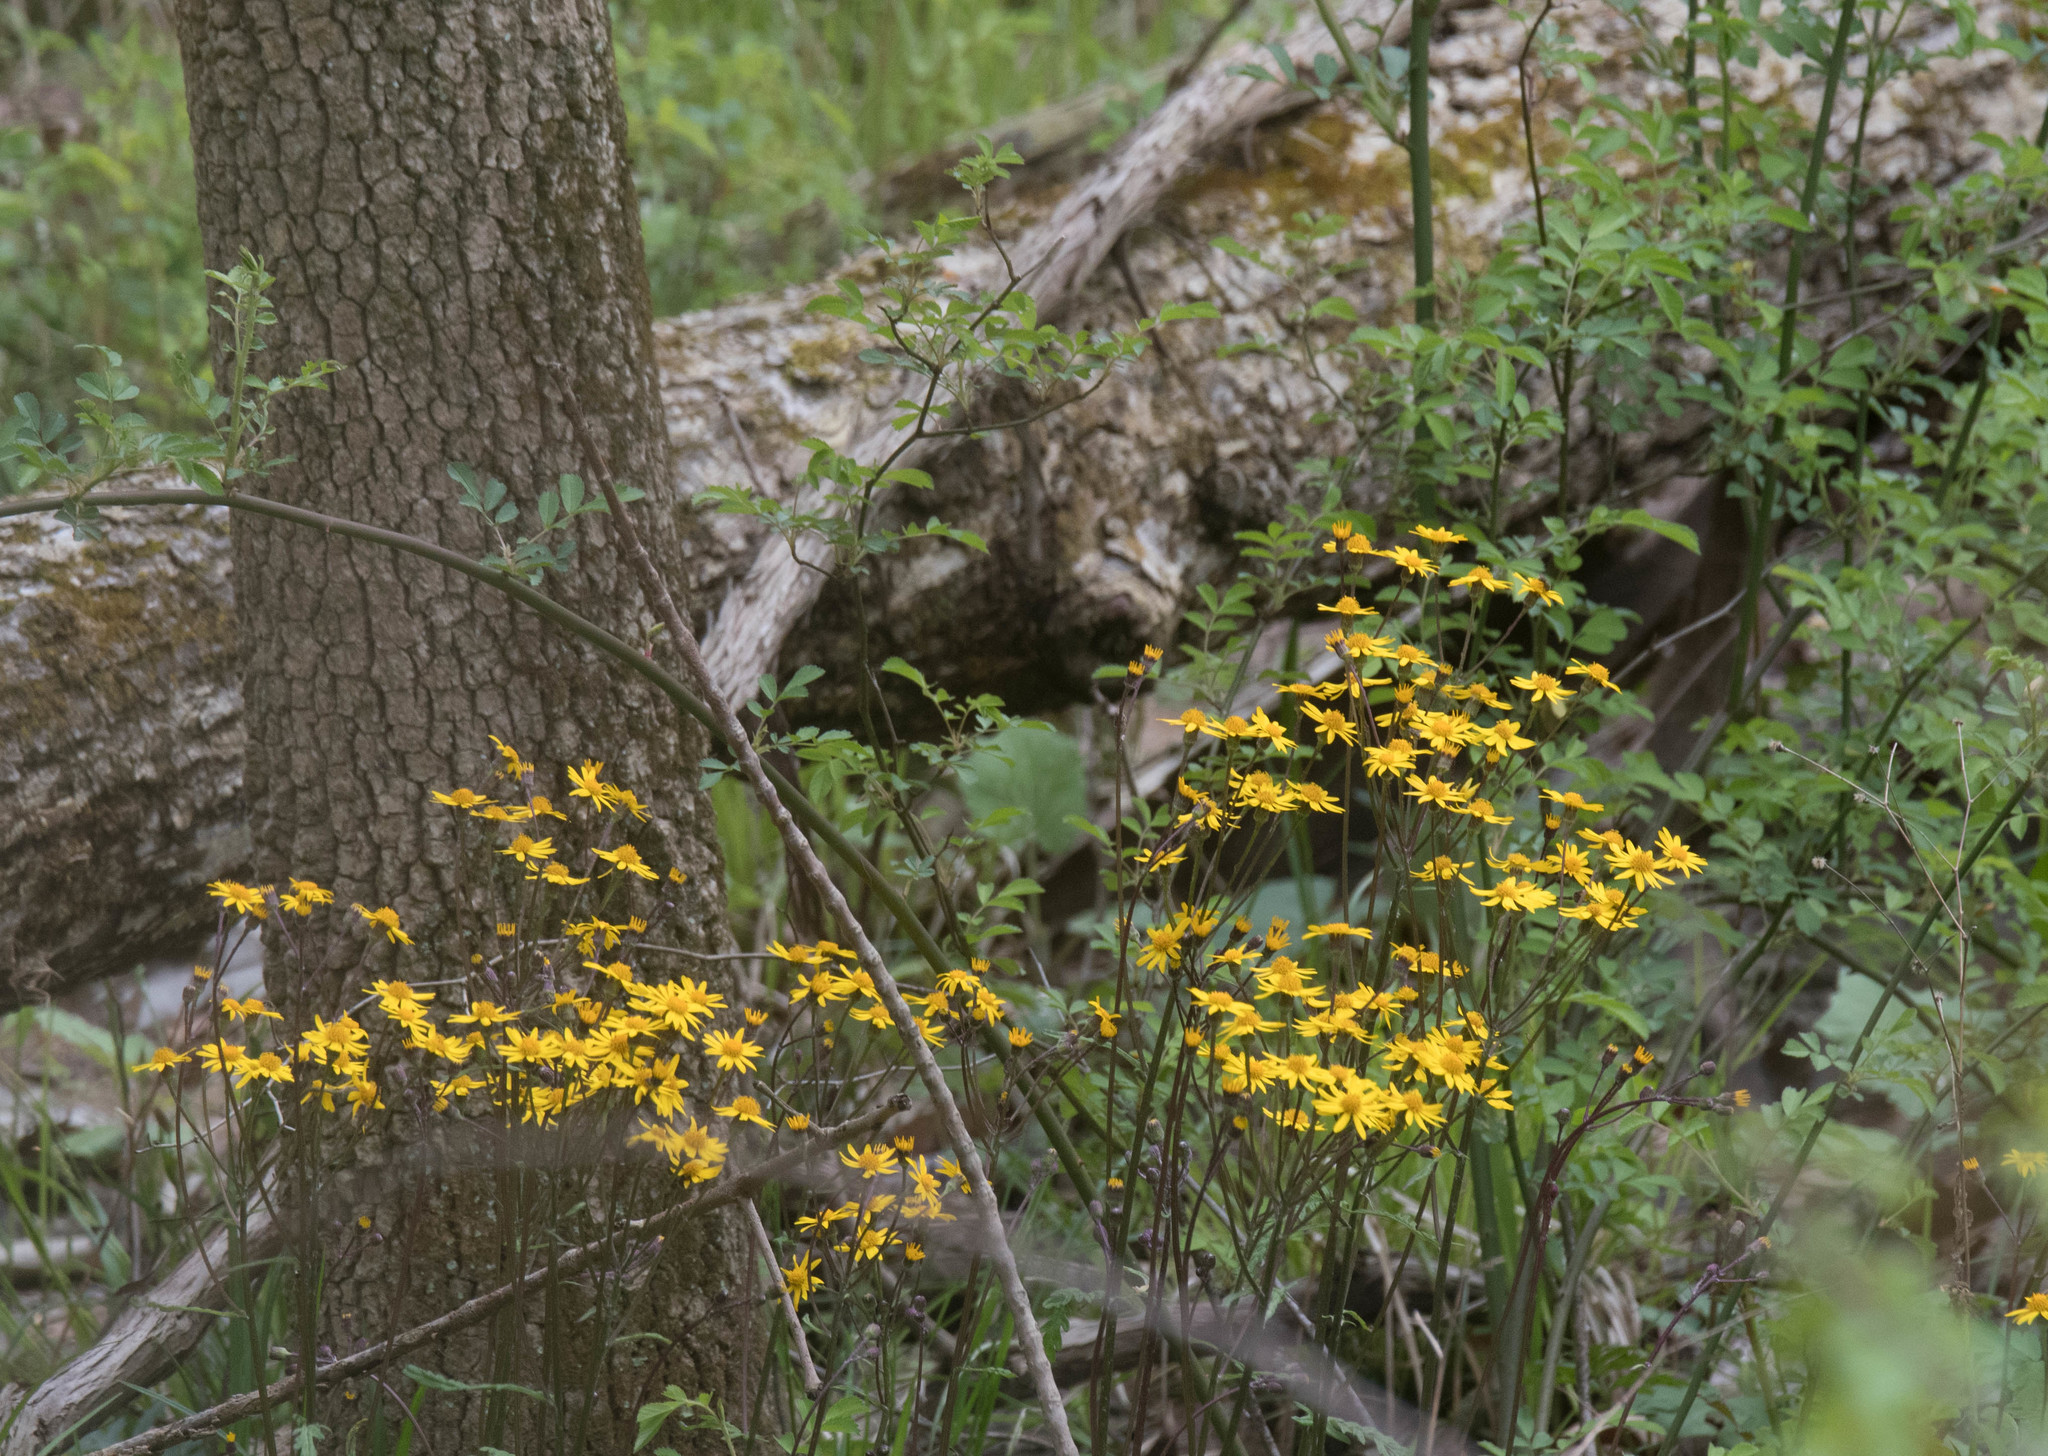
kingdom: Plantae
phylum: Tracheophyta
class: Magnoliopsida
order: Asterales
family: Asteraceae
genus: Packera
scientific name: Packera aurea
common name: Golden groundsel
